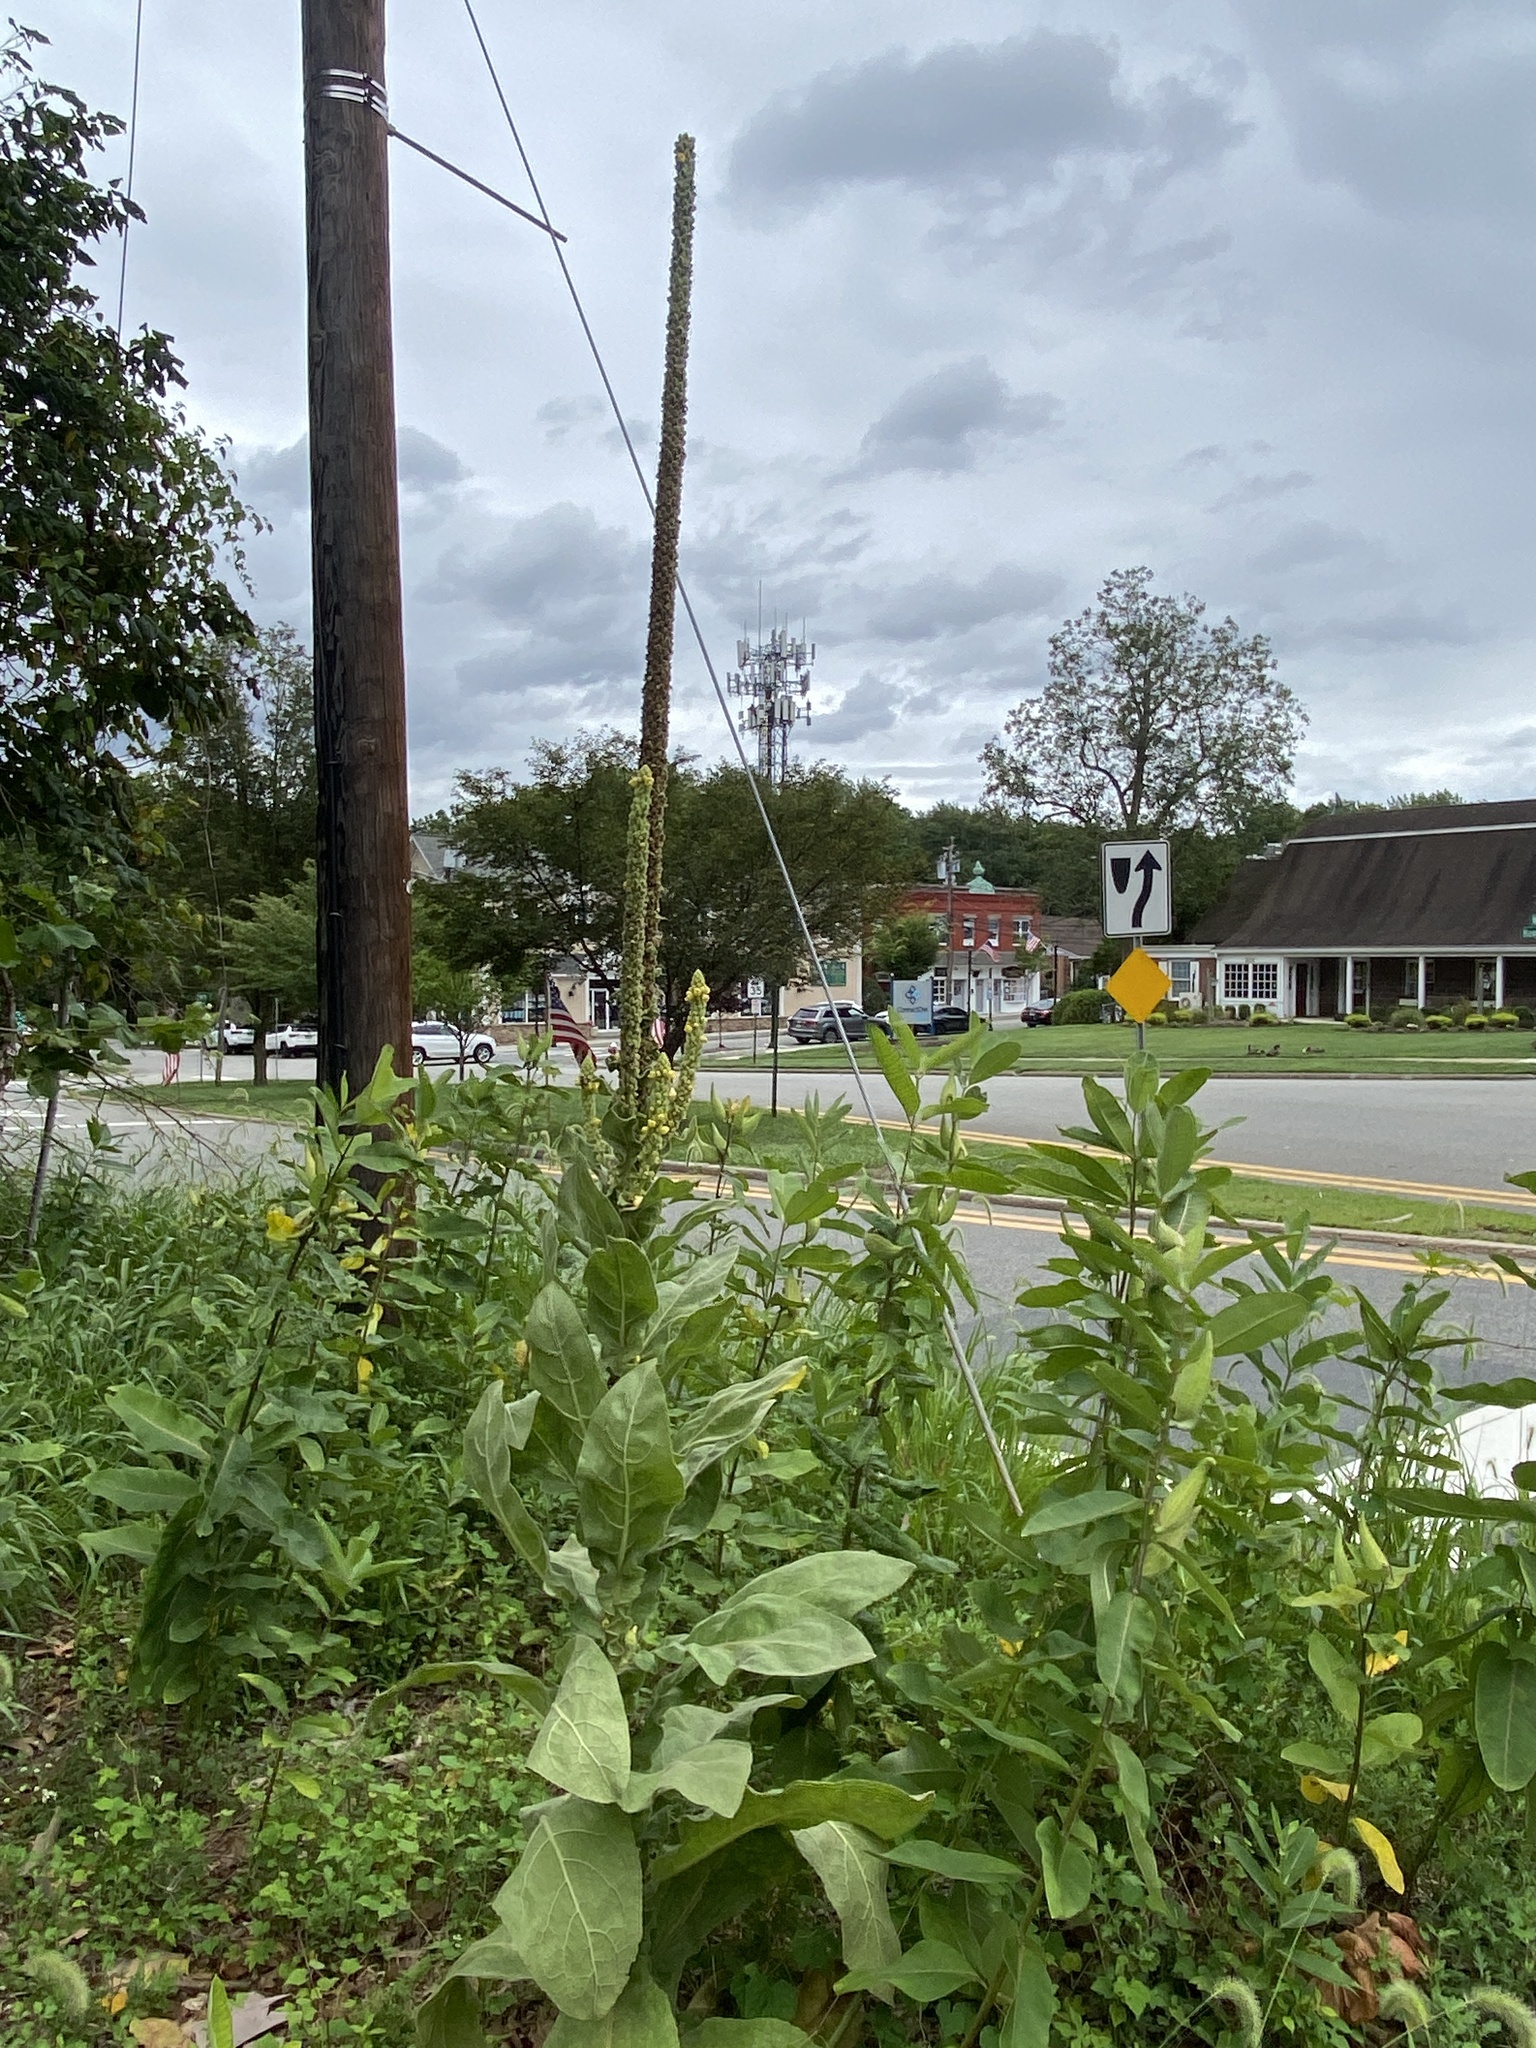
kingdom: Plantae
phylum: Tracheophyta
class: Magnoliopsida
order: Lamiales
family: Scrophulariaceae
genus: Verbascum
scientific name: Verbascum thapsus
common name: Common mullein
